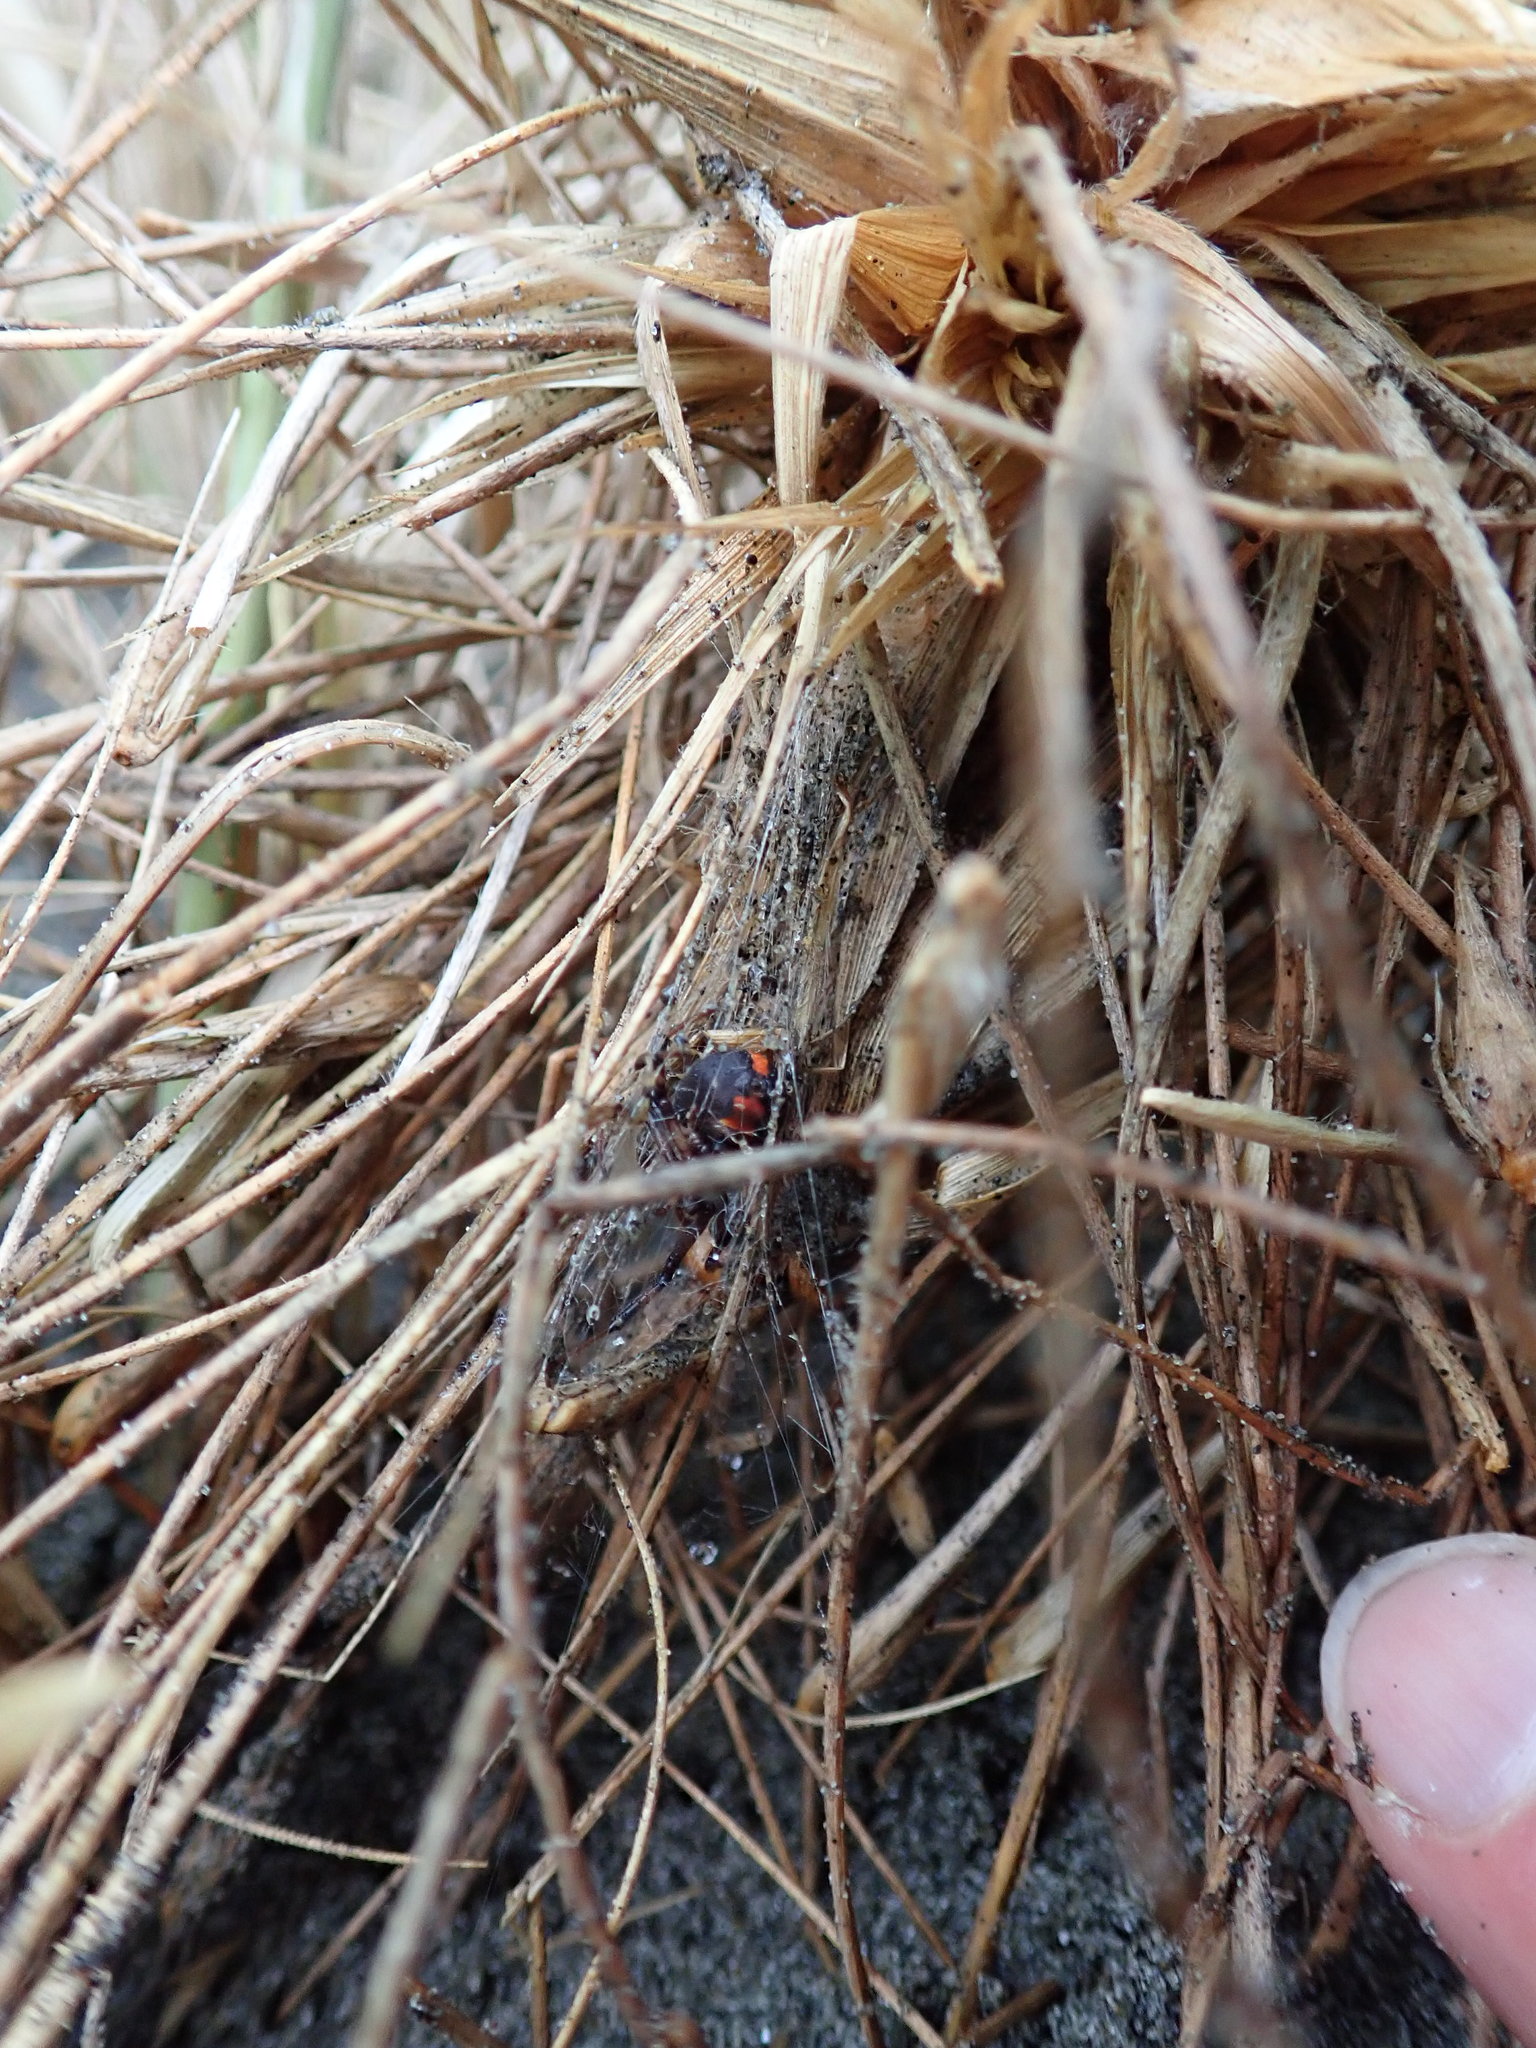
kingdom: Animalia
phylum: Arthropoda
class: Arachnida
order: Araneae
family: Theridiidae
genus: Latrodectus
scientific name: Latrodectus katipo
